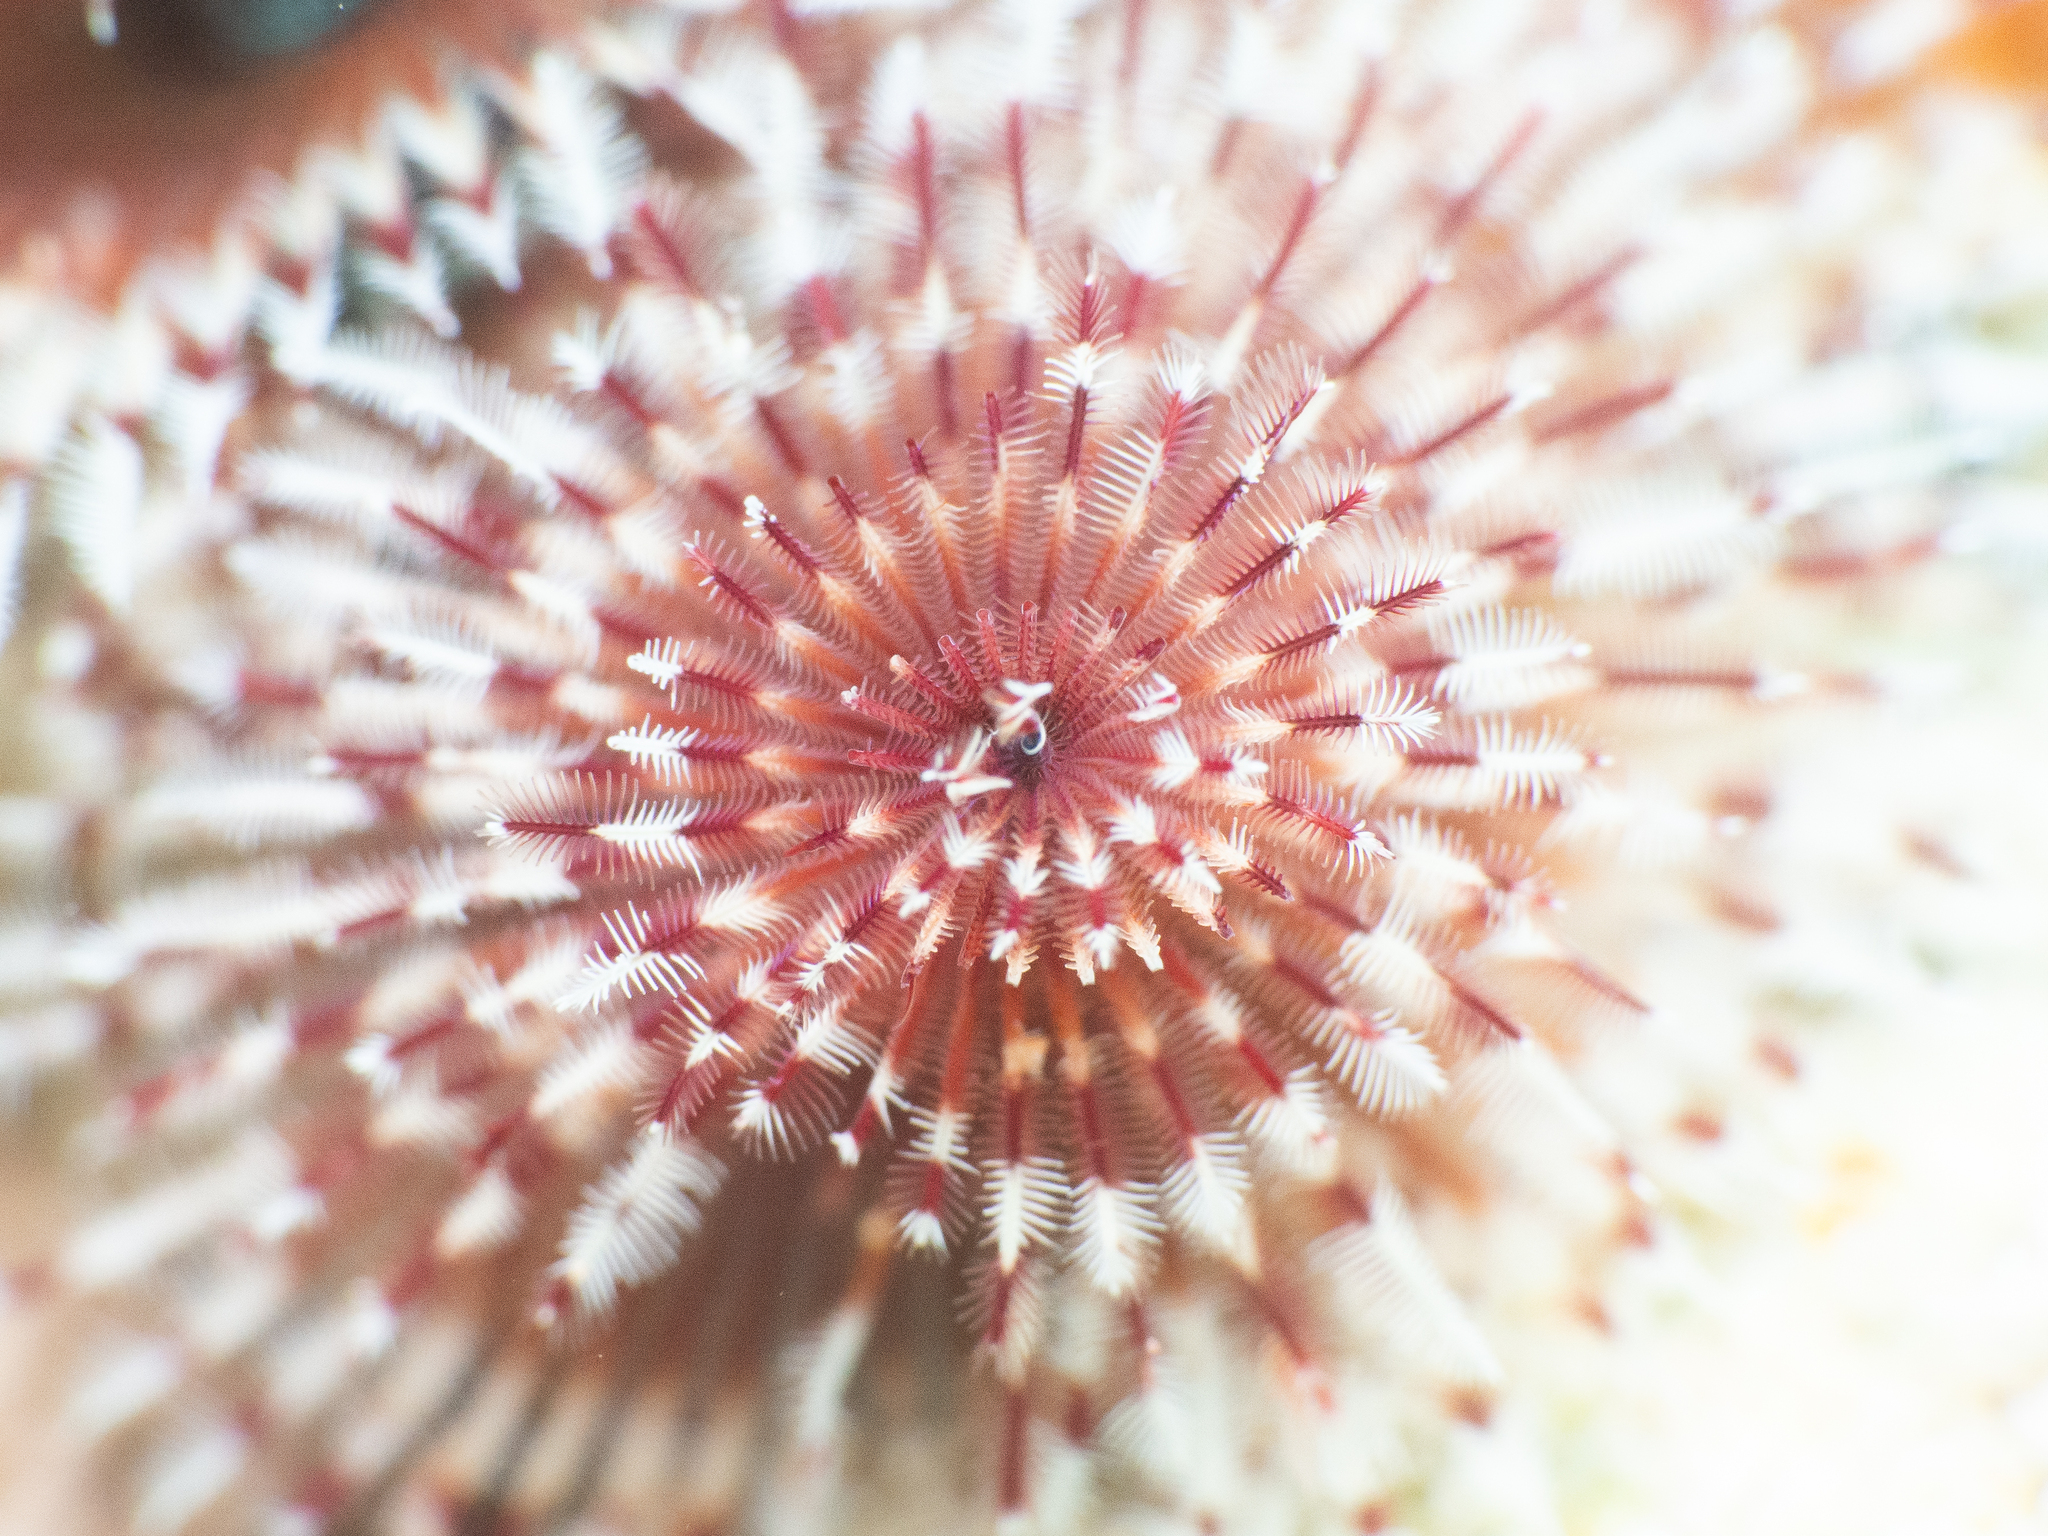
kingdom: Animalia
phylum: Annelida
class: Polychaeta
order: Sabellida
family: Serpulidae
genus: Spirobranchus
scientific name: Spirobranchus giganteus
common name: Christmas tree worm
